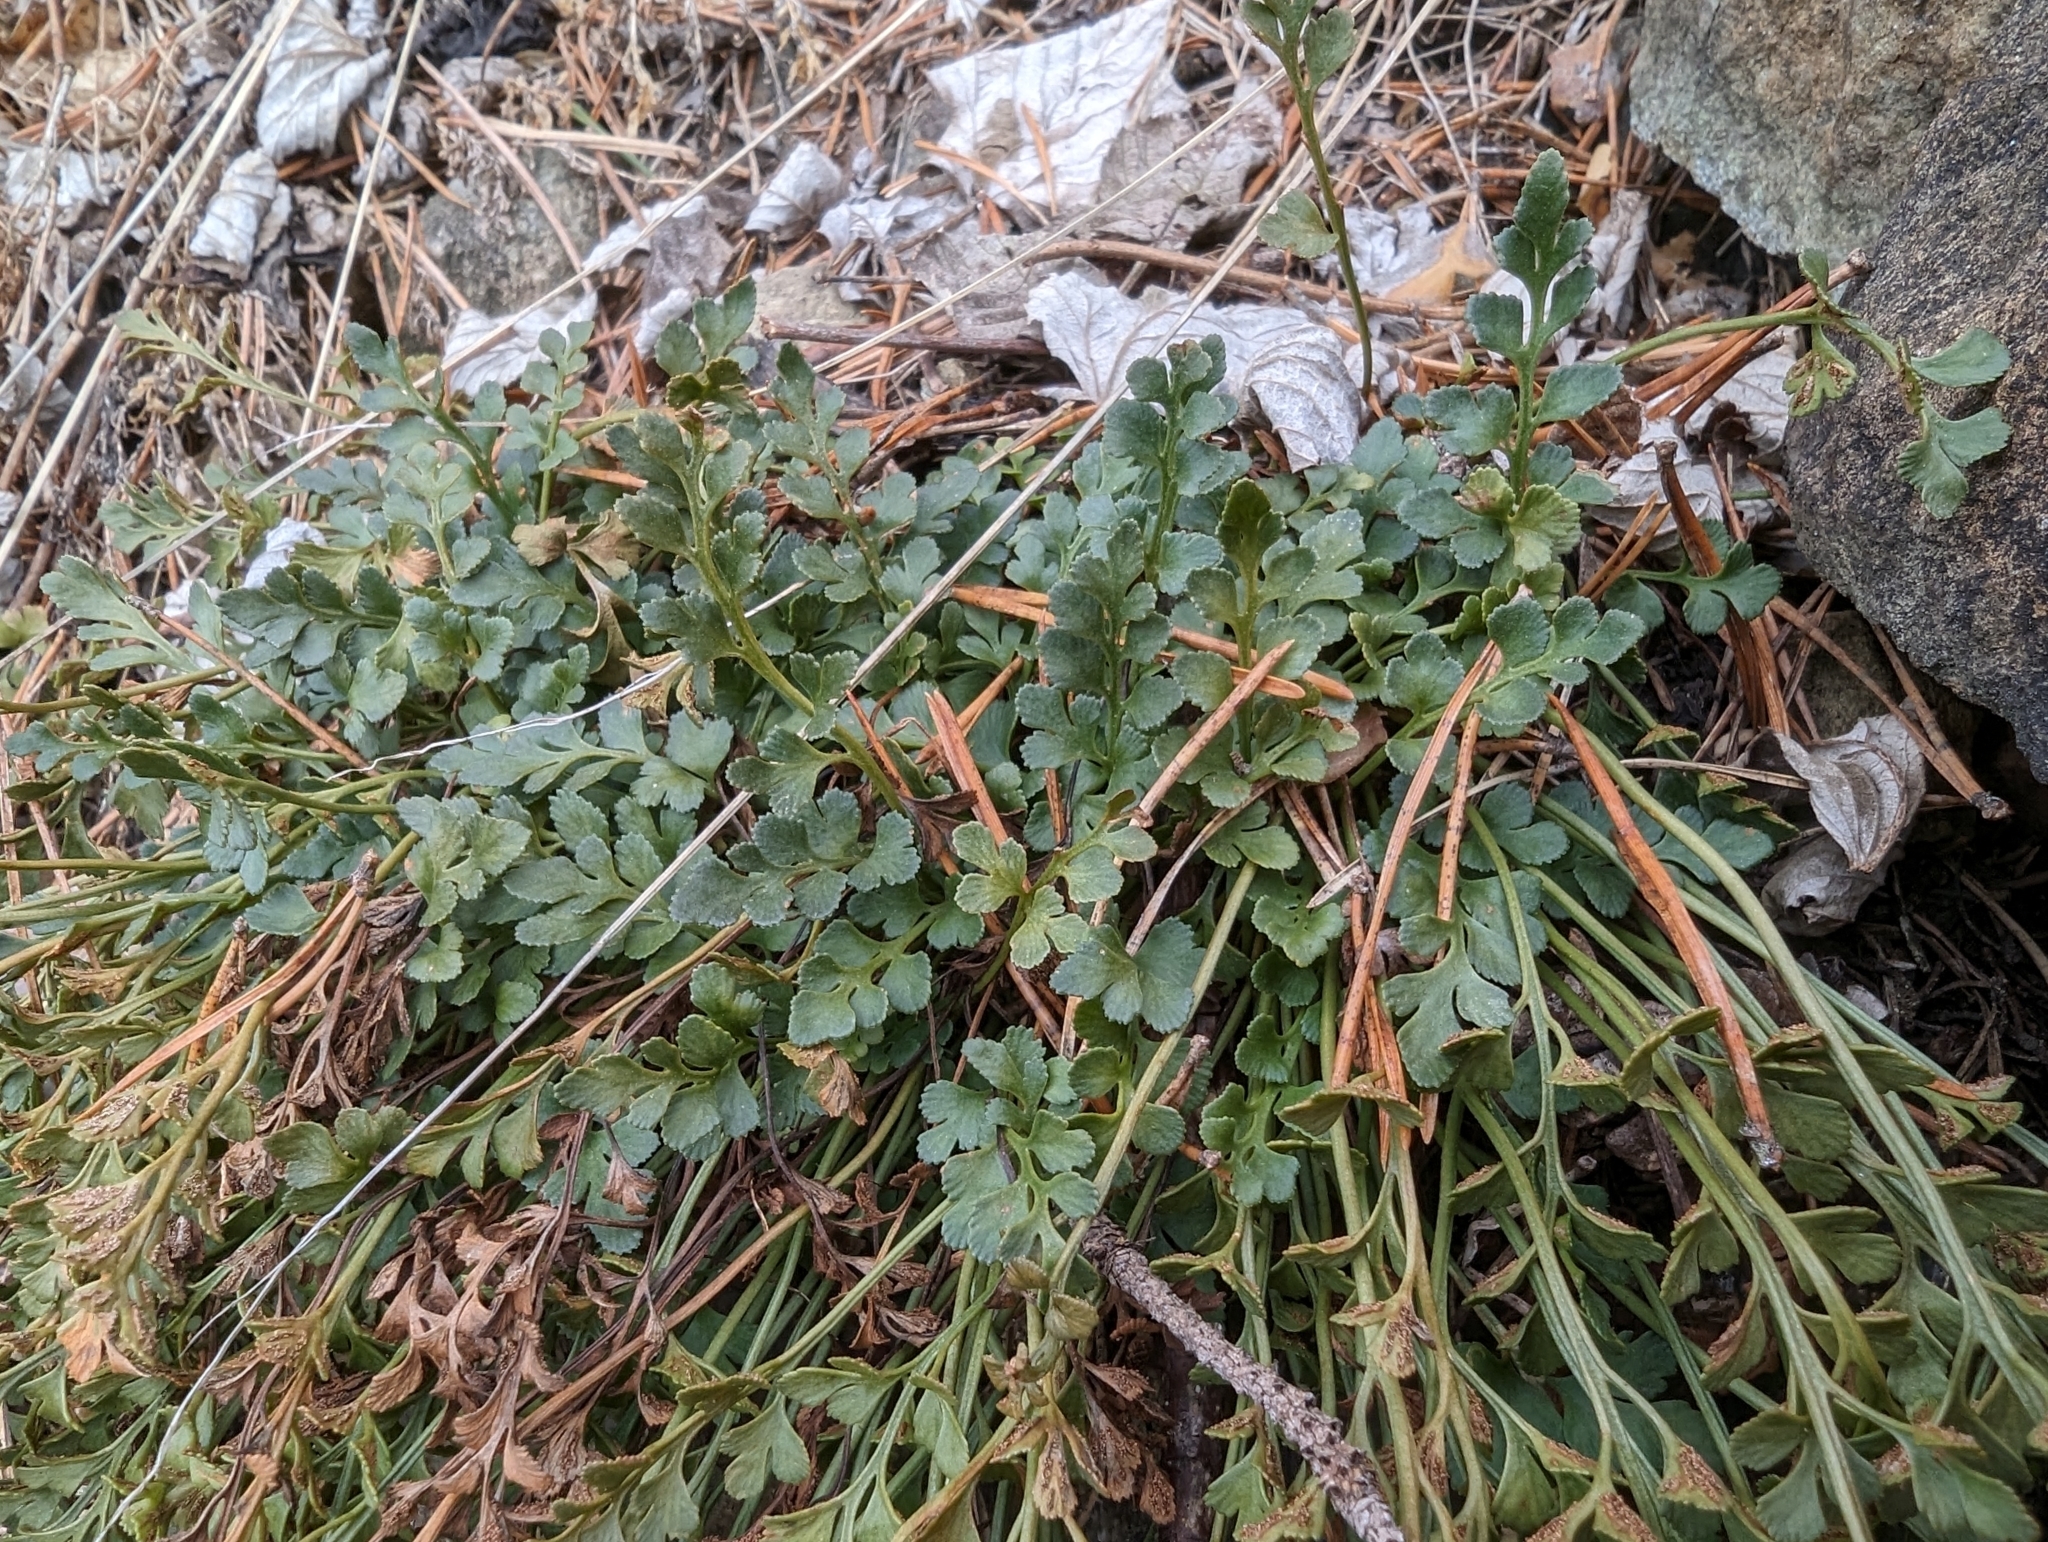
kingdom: Plantae
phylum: Tracheophyta
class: Polypodiopsida
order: Polypodiales
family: Aspleniaceae
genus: Asplenium
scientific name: Asplenium ruta-muraria
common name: Wall-rue
